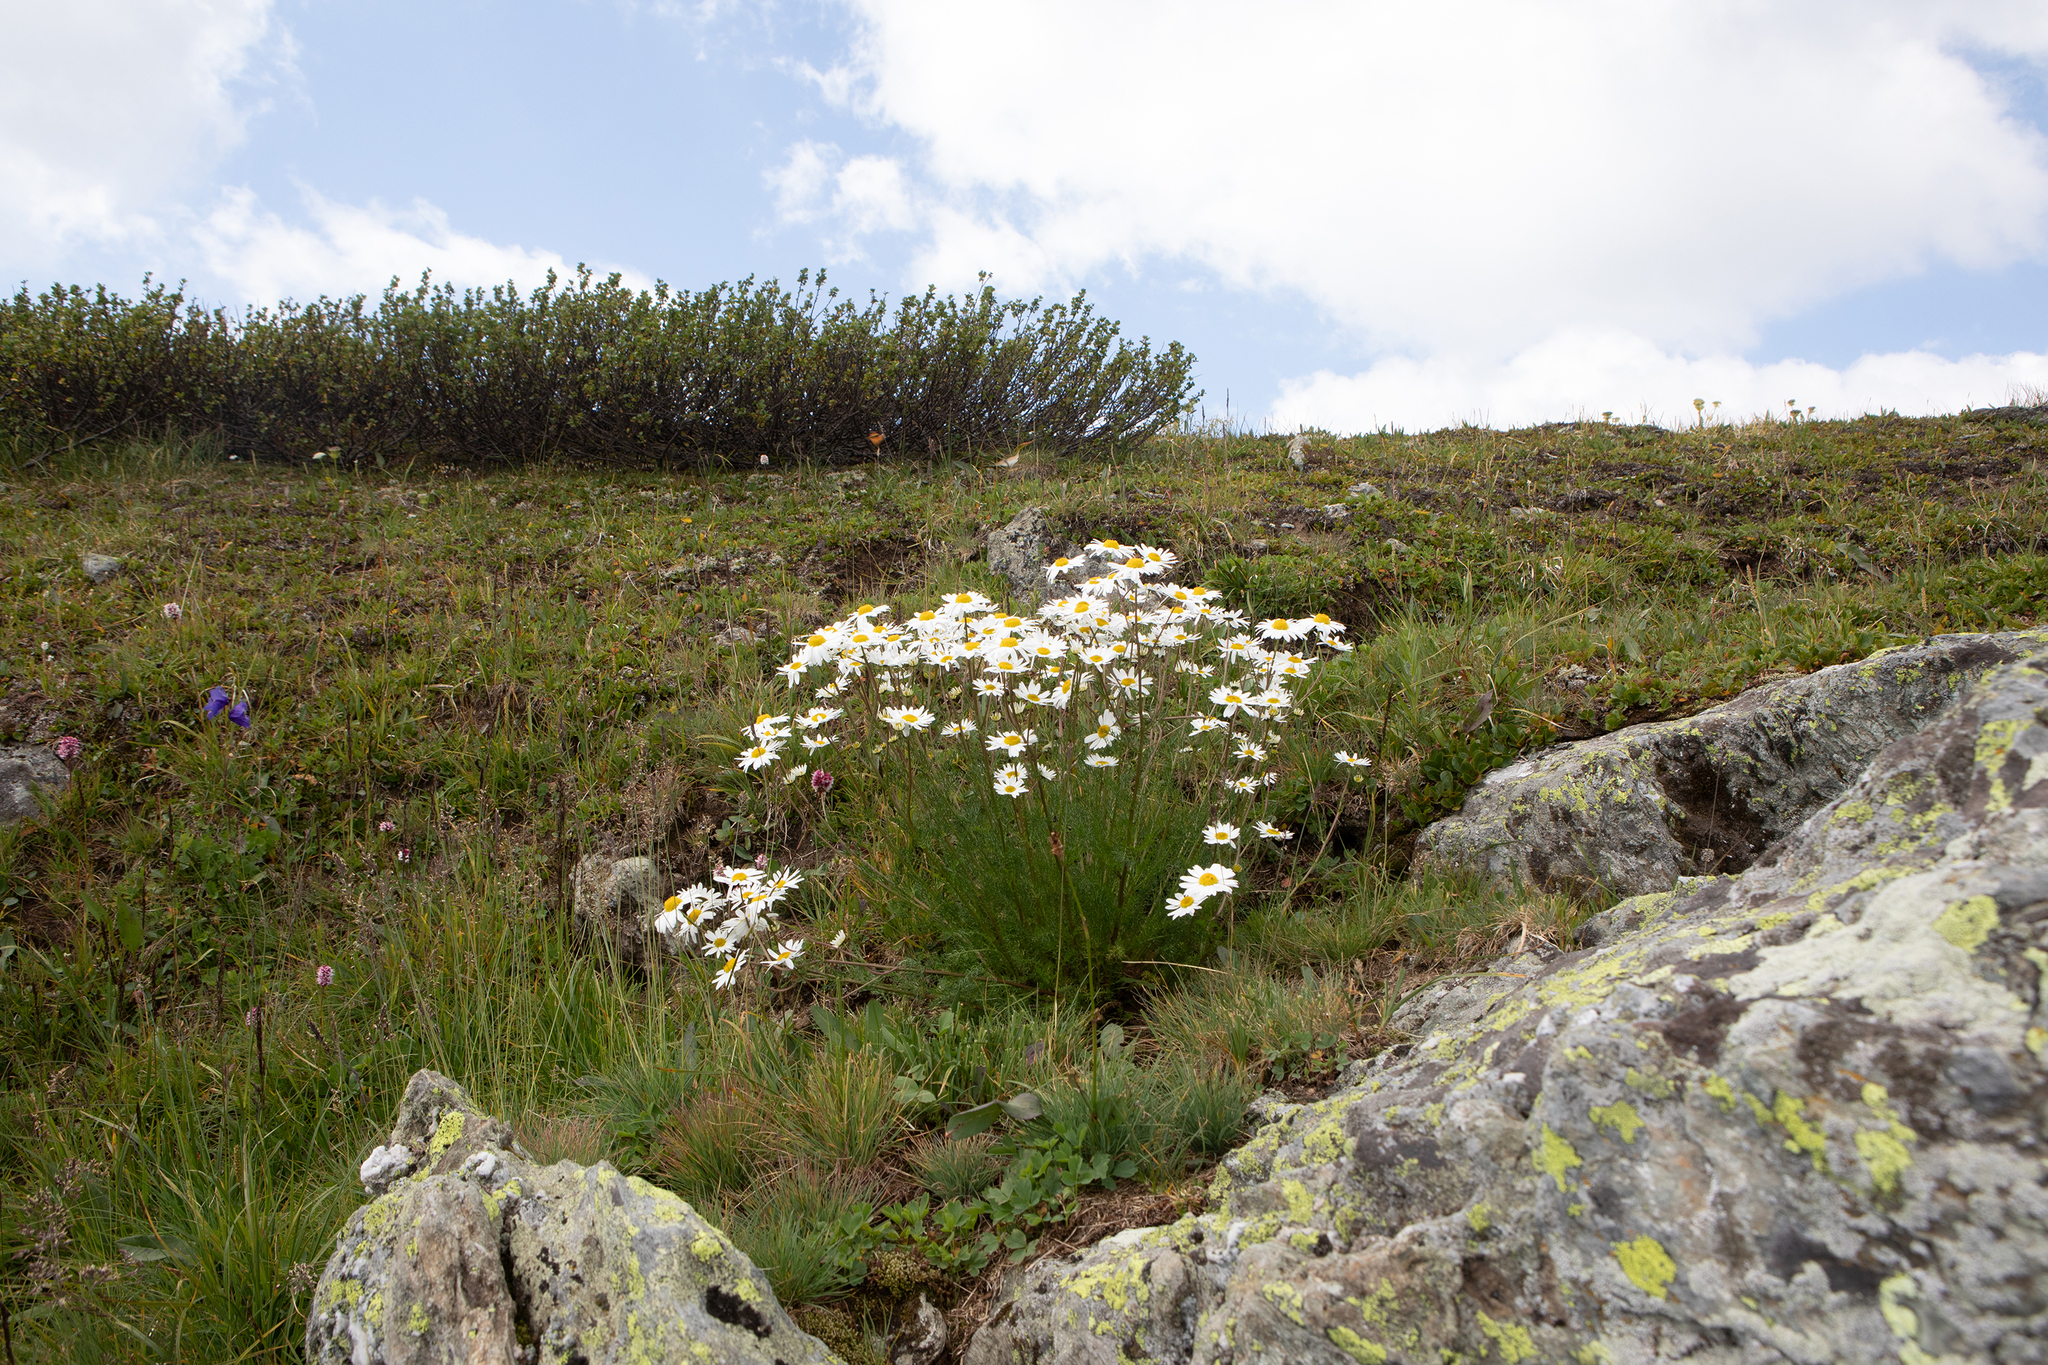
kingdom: Plantae
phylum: Tracheophyta
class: Magnoliopsida
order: Asterales
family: Asteraceae
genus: Tripleurospermum
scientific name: Tripleurospermum inodorum
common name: Scentless mayweed
